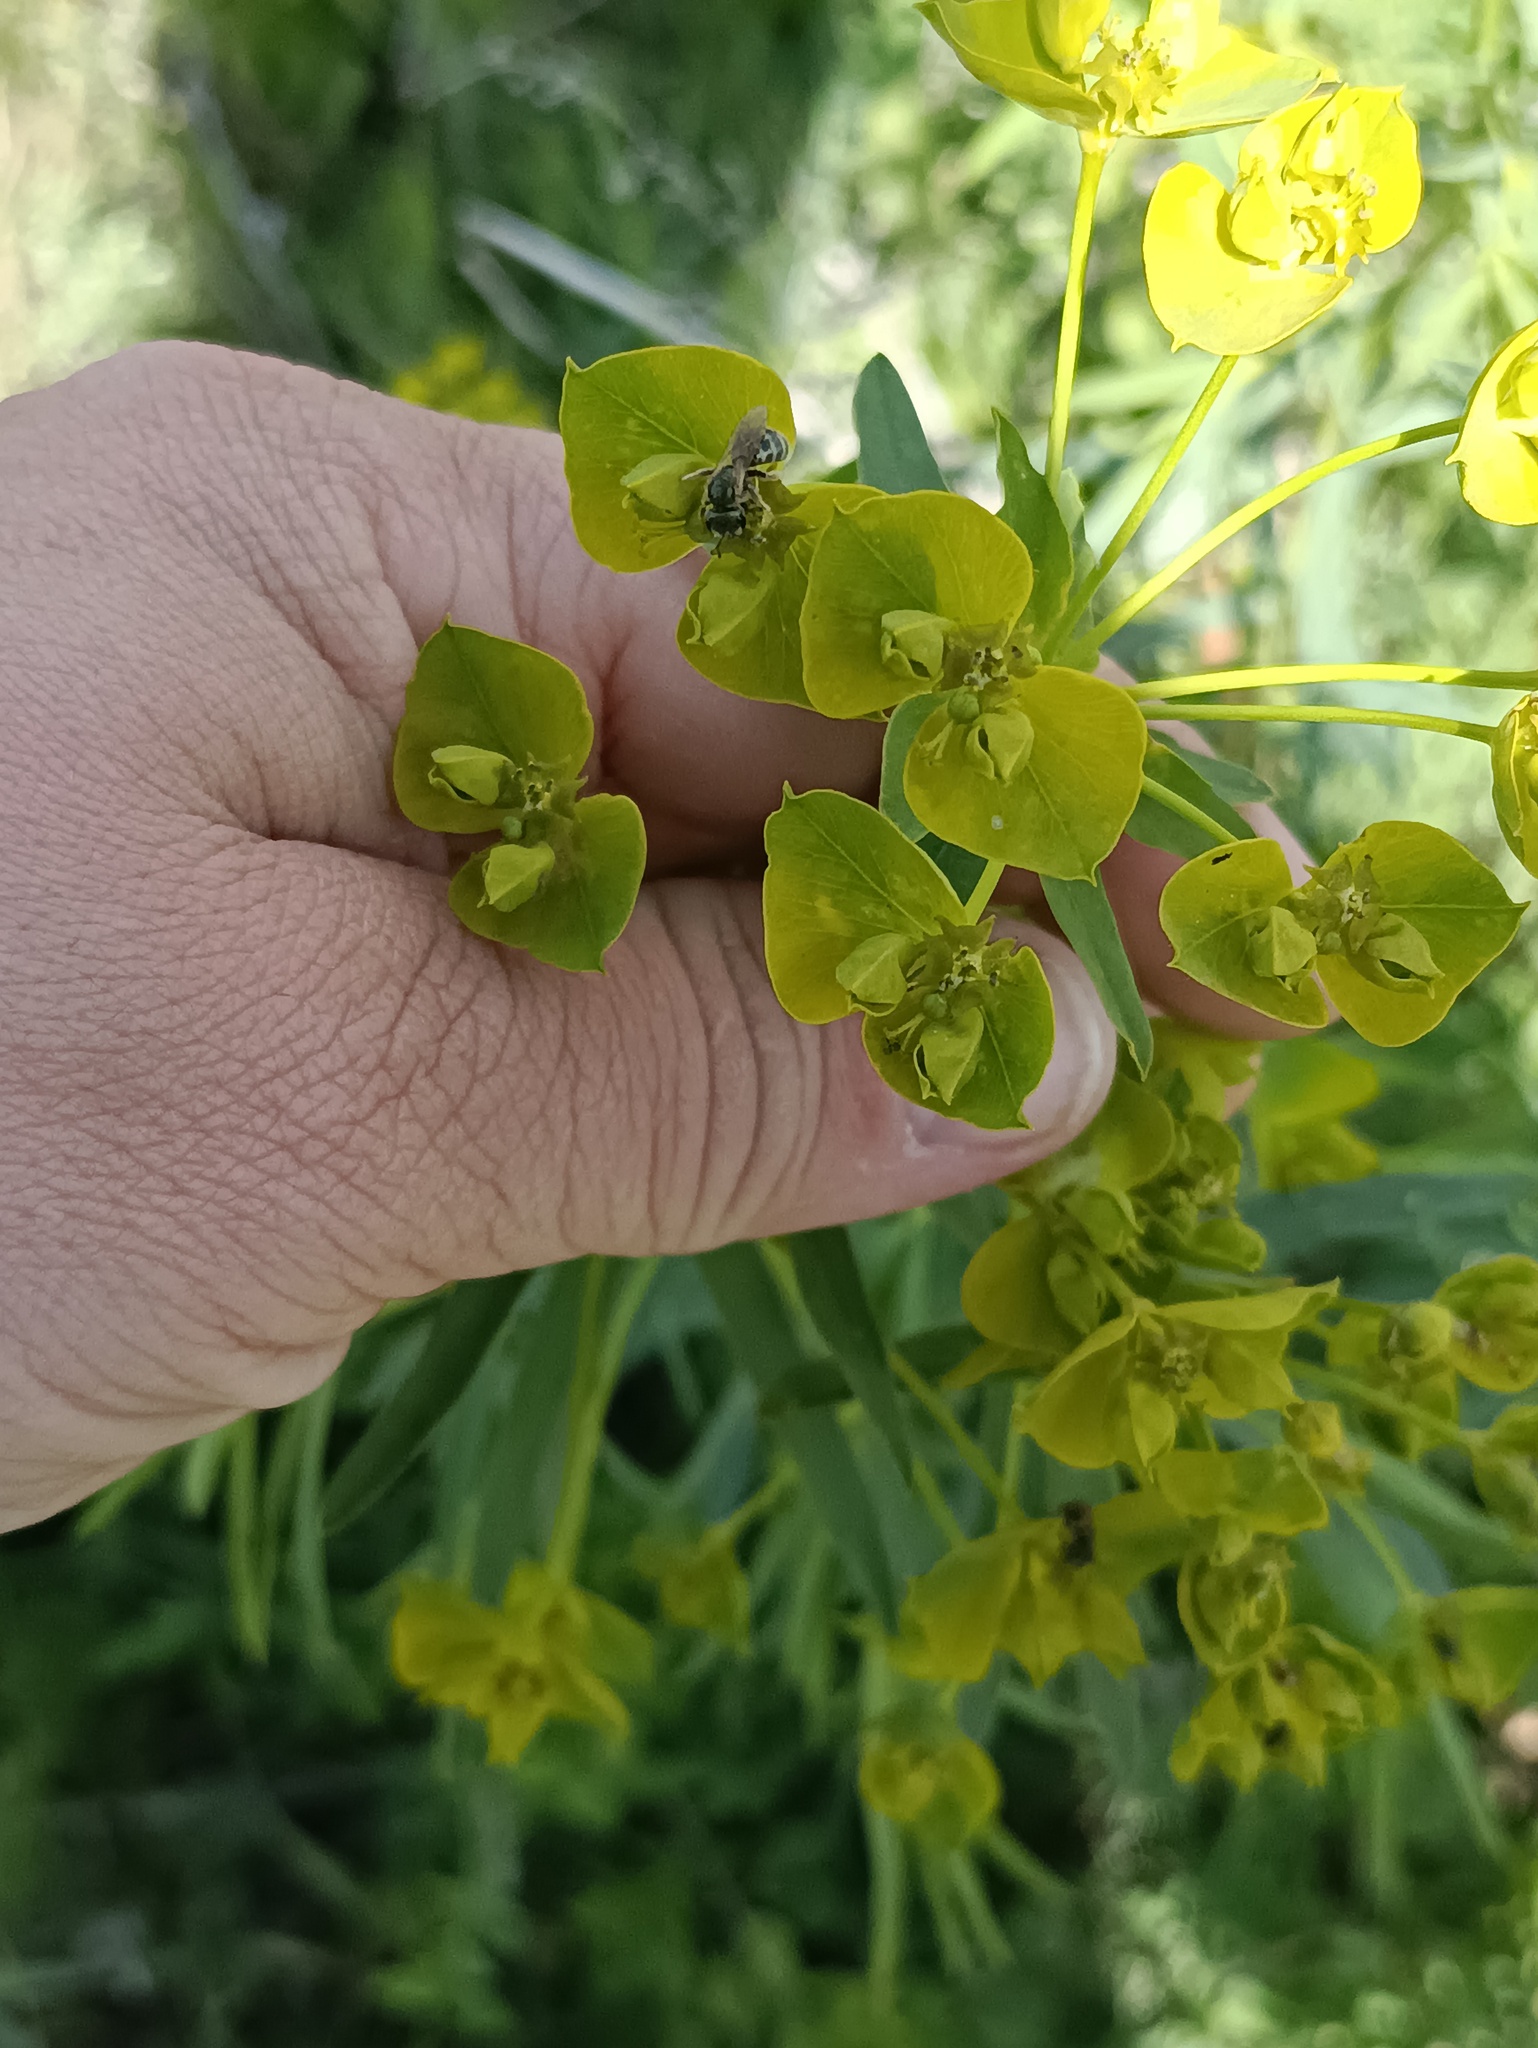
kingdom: Plantae
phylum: Tracheophyta
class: Magnoliopsida
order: Malpighiales
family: Euphorbiaceae
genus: Euphorbia
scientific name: Euphorbia virgata
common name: Leafy spurge
